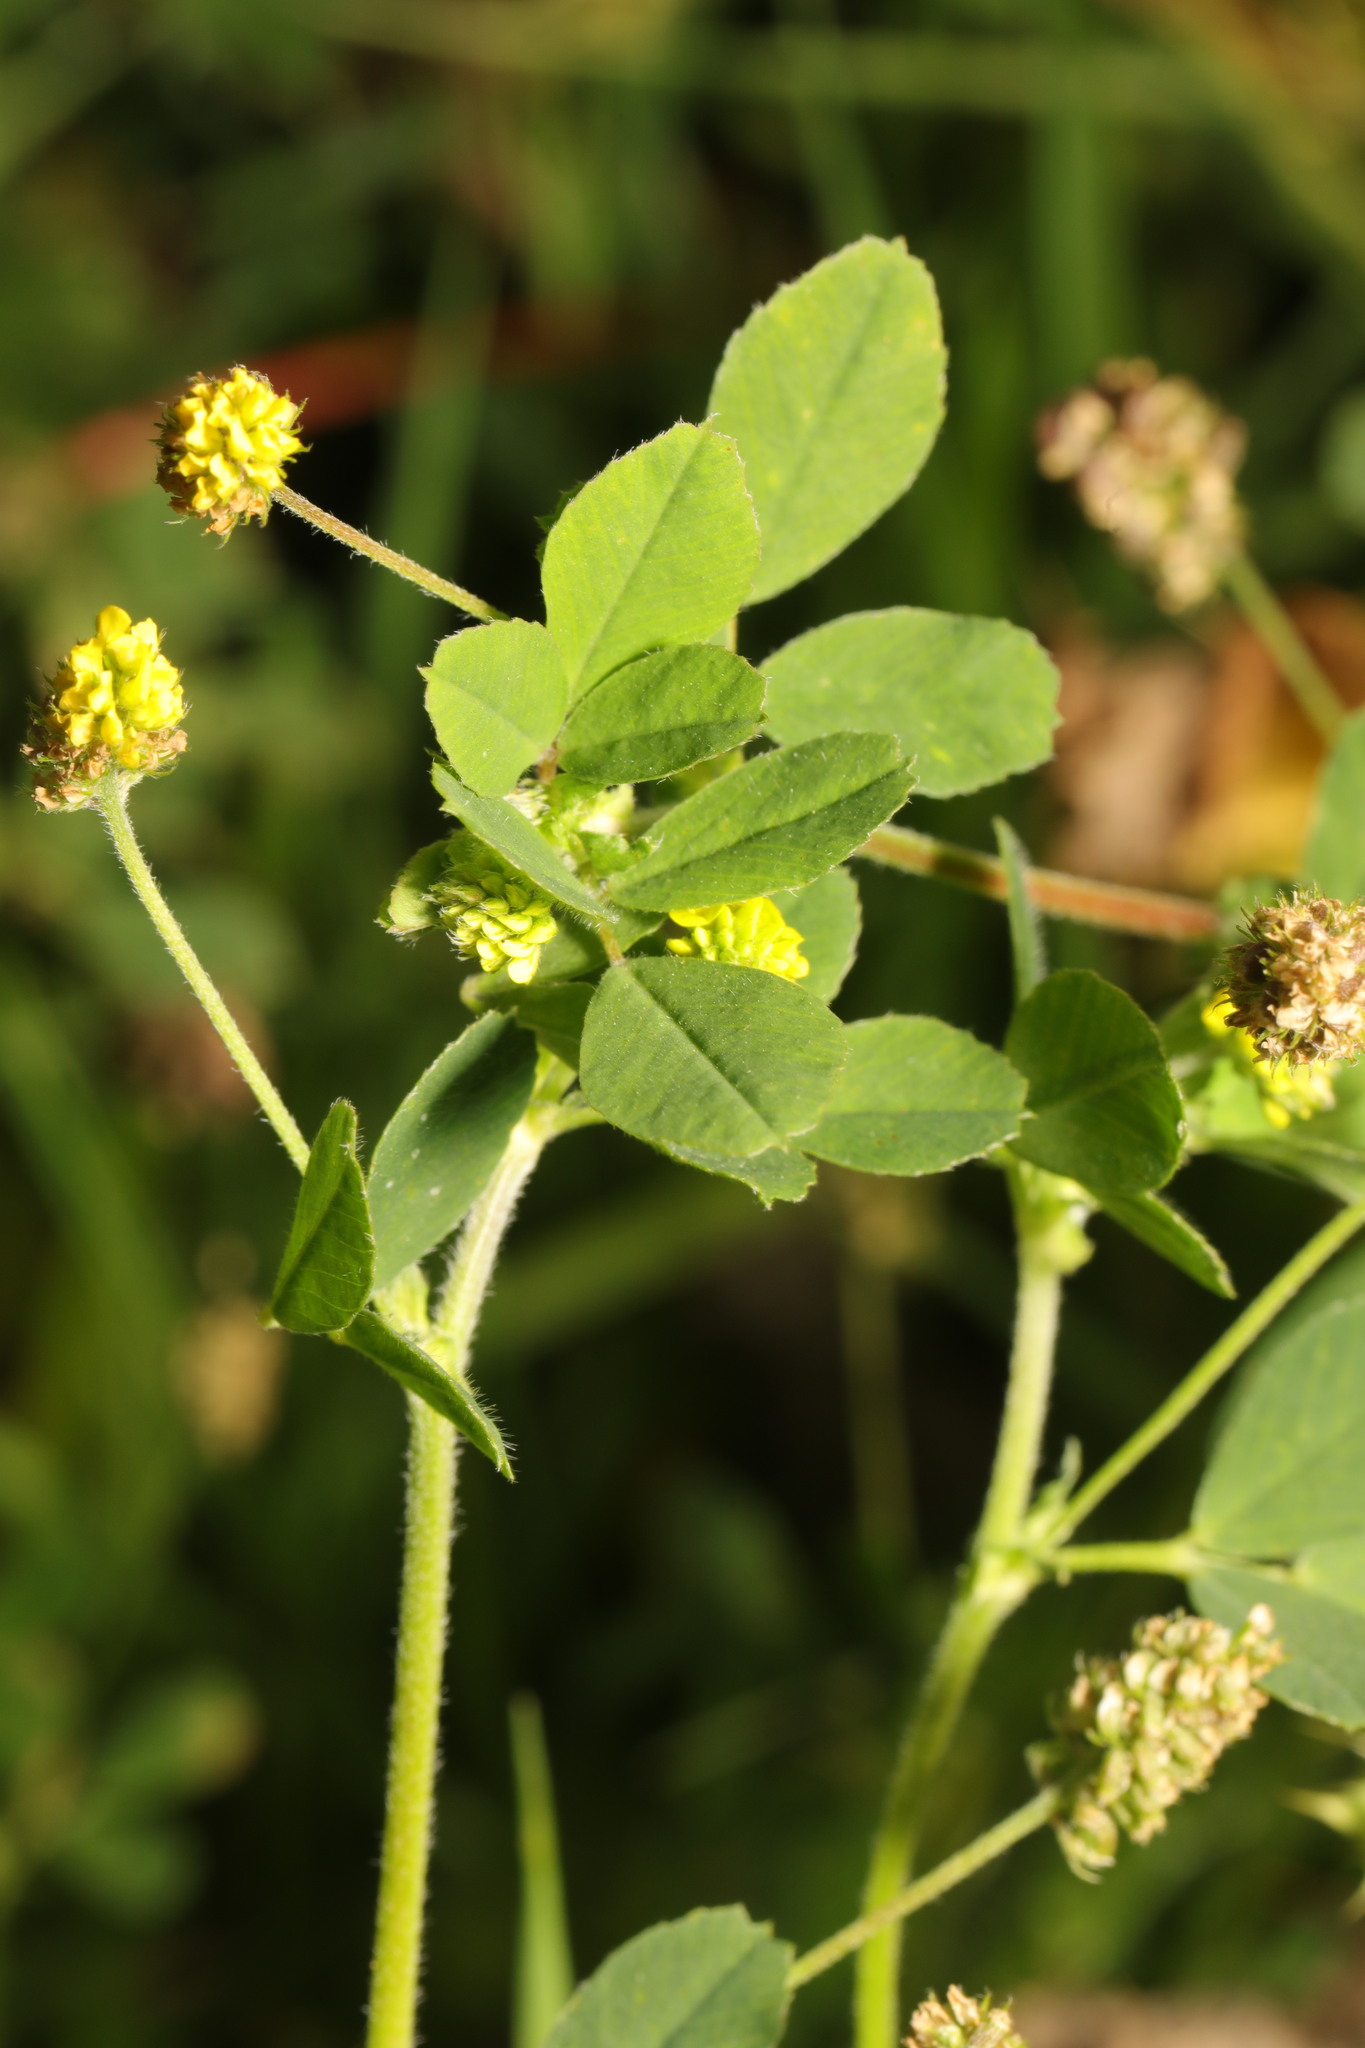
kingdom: Plantae
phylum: Tracheophyta
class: Magnoliopsida
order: Fabales
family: Fabaceae
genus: Medicago
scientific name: Medicago lupulina
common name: Black medick
